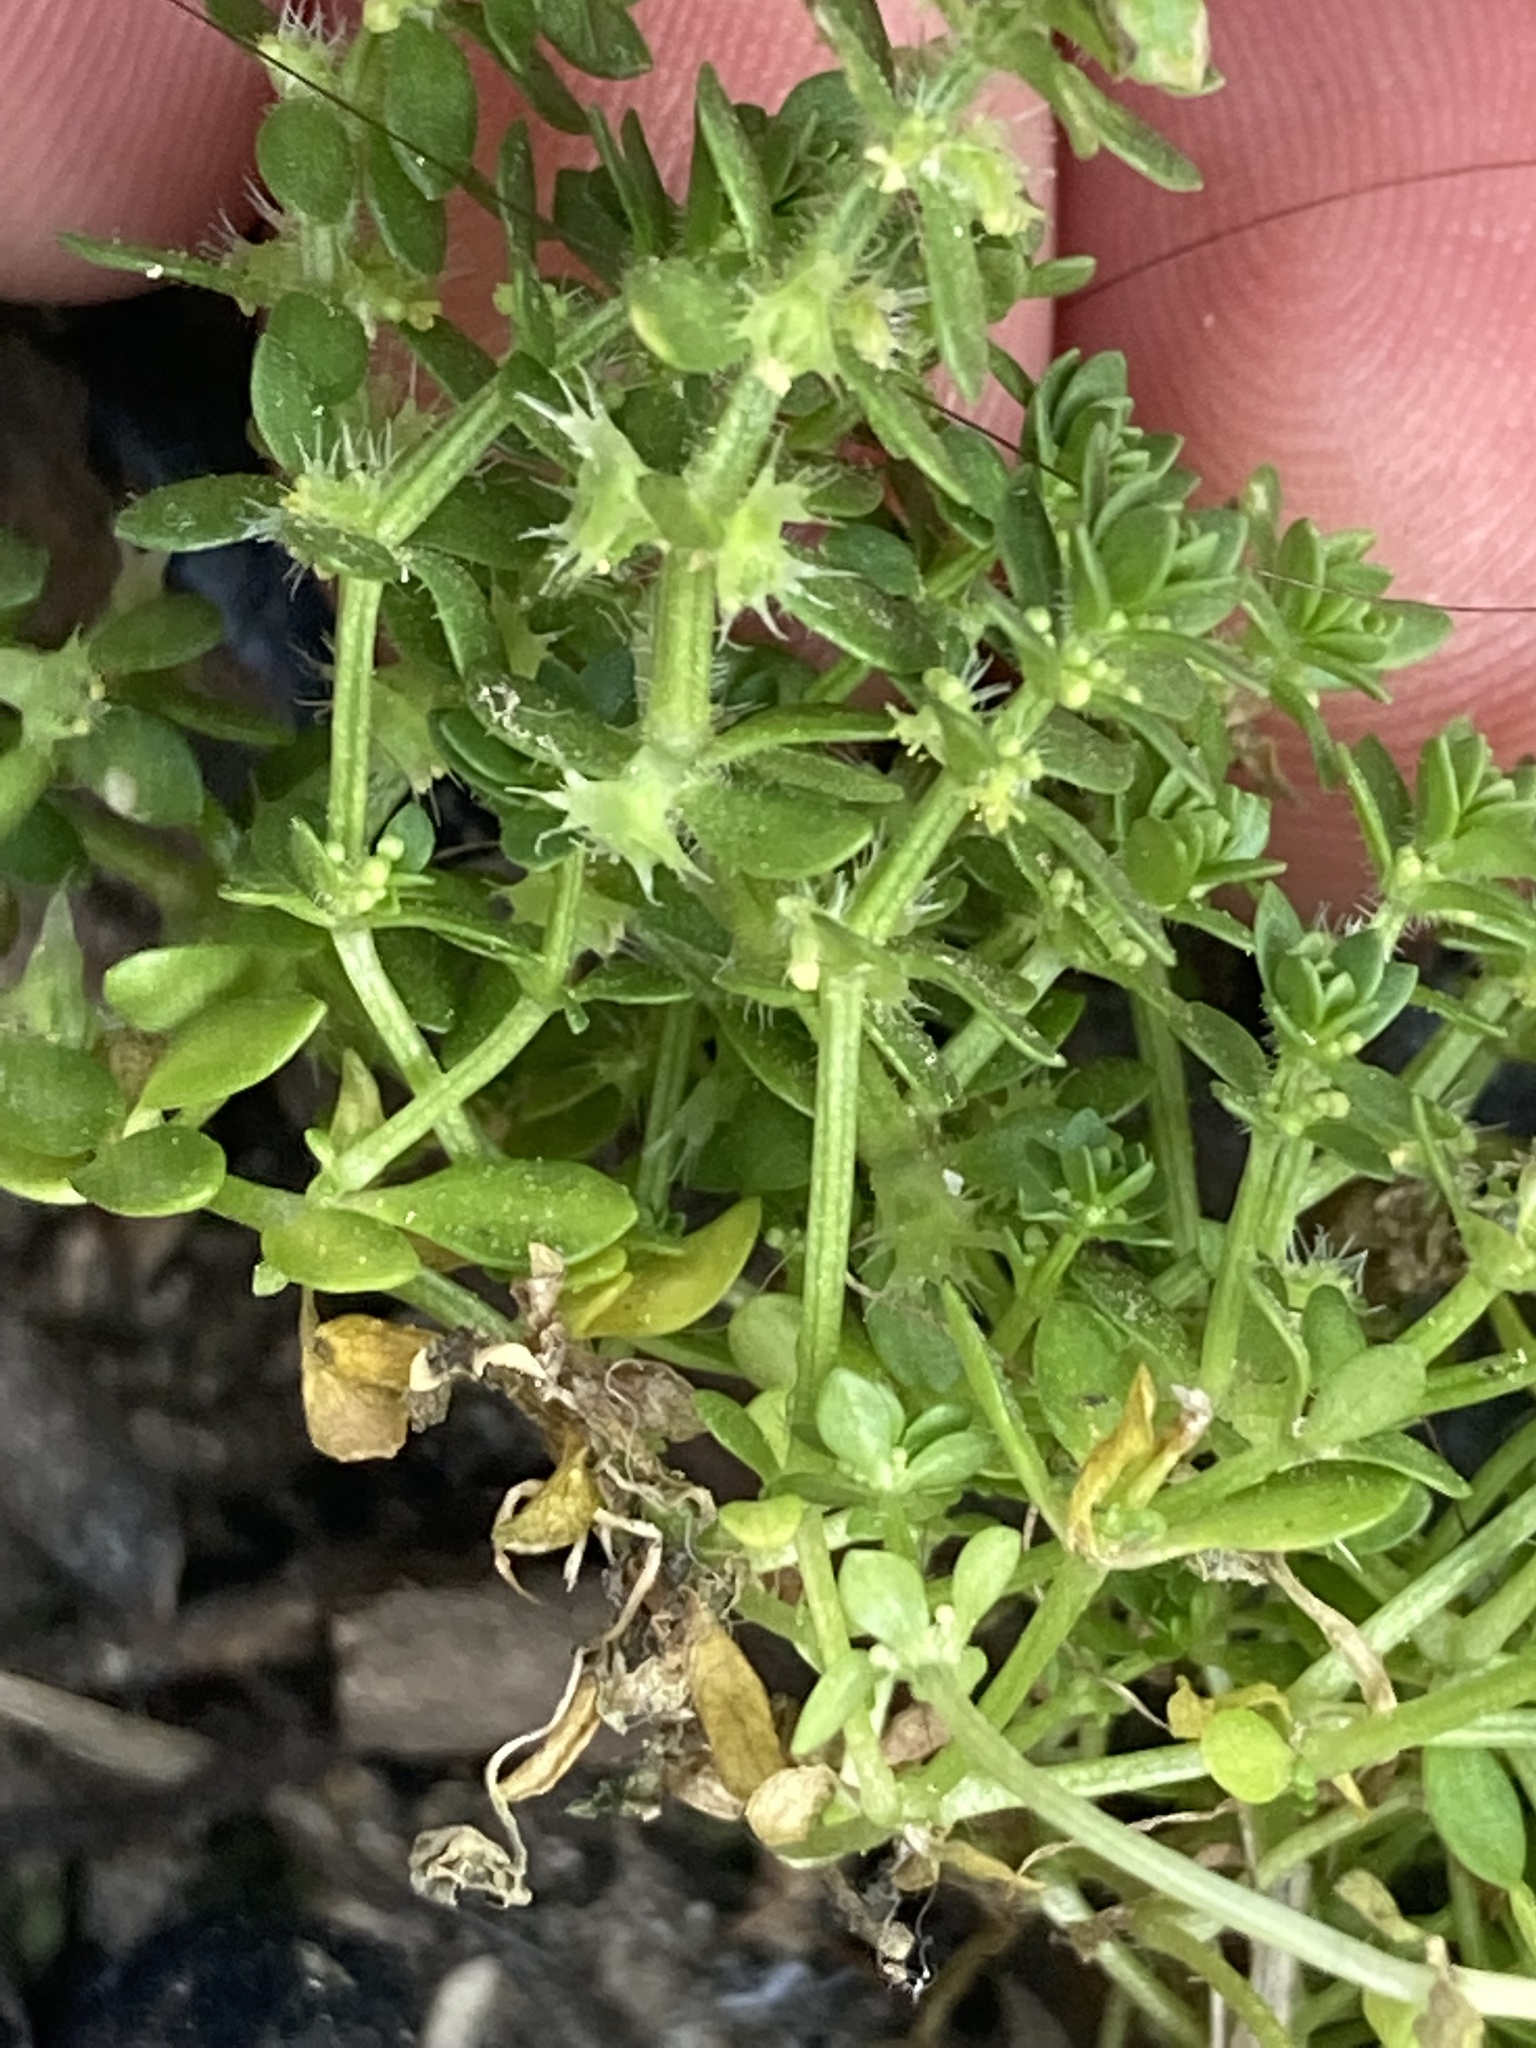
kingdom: Plantae
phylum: Tracheophyta
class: Magnoliopsida
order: Gentianales
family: Rubiaceae
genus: Valantia
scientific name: Valantia muralis
